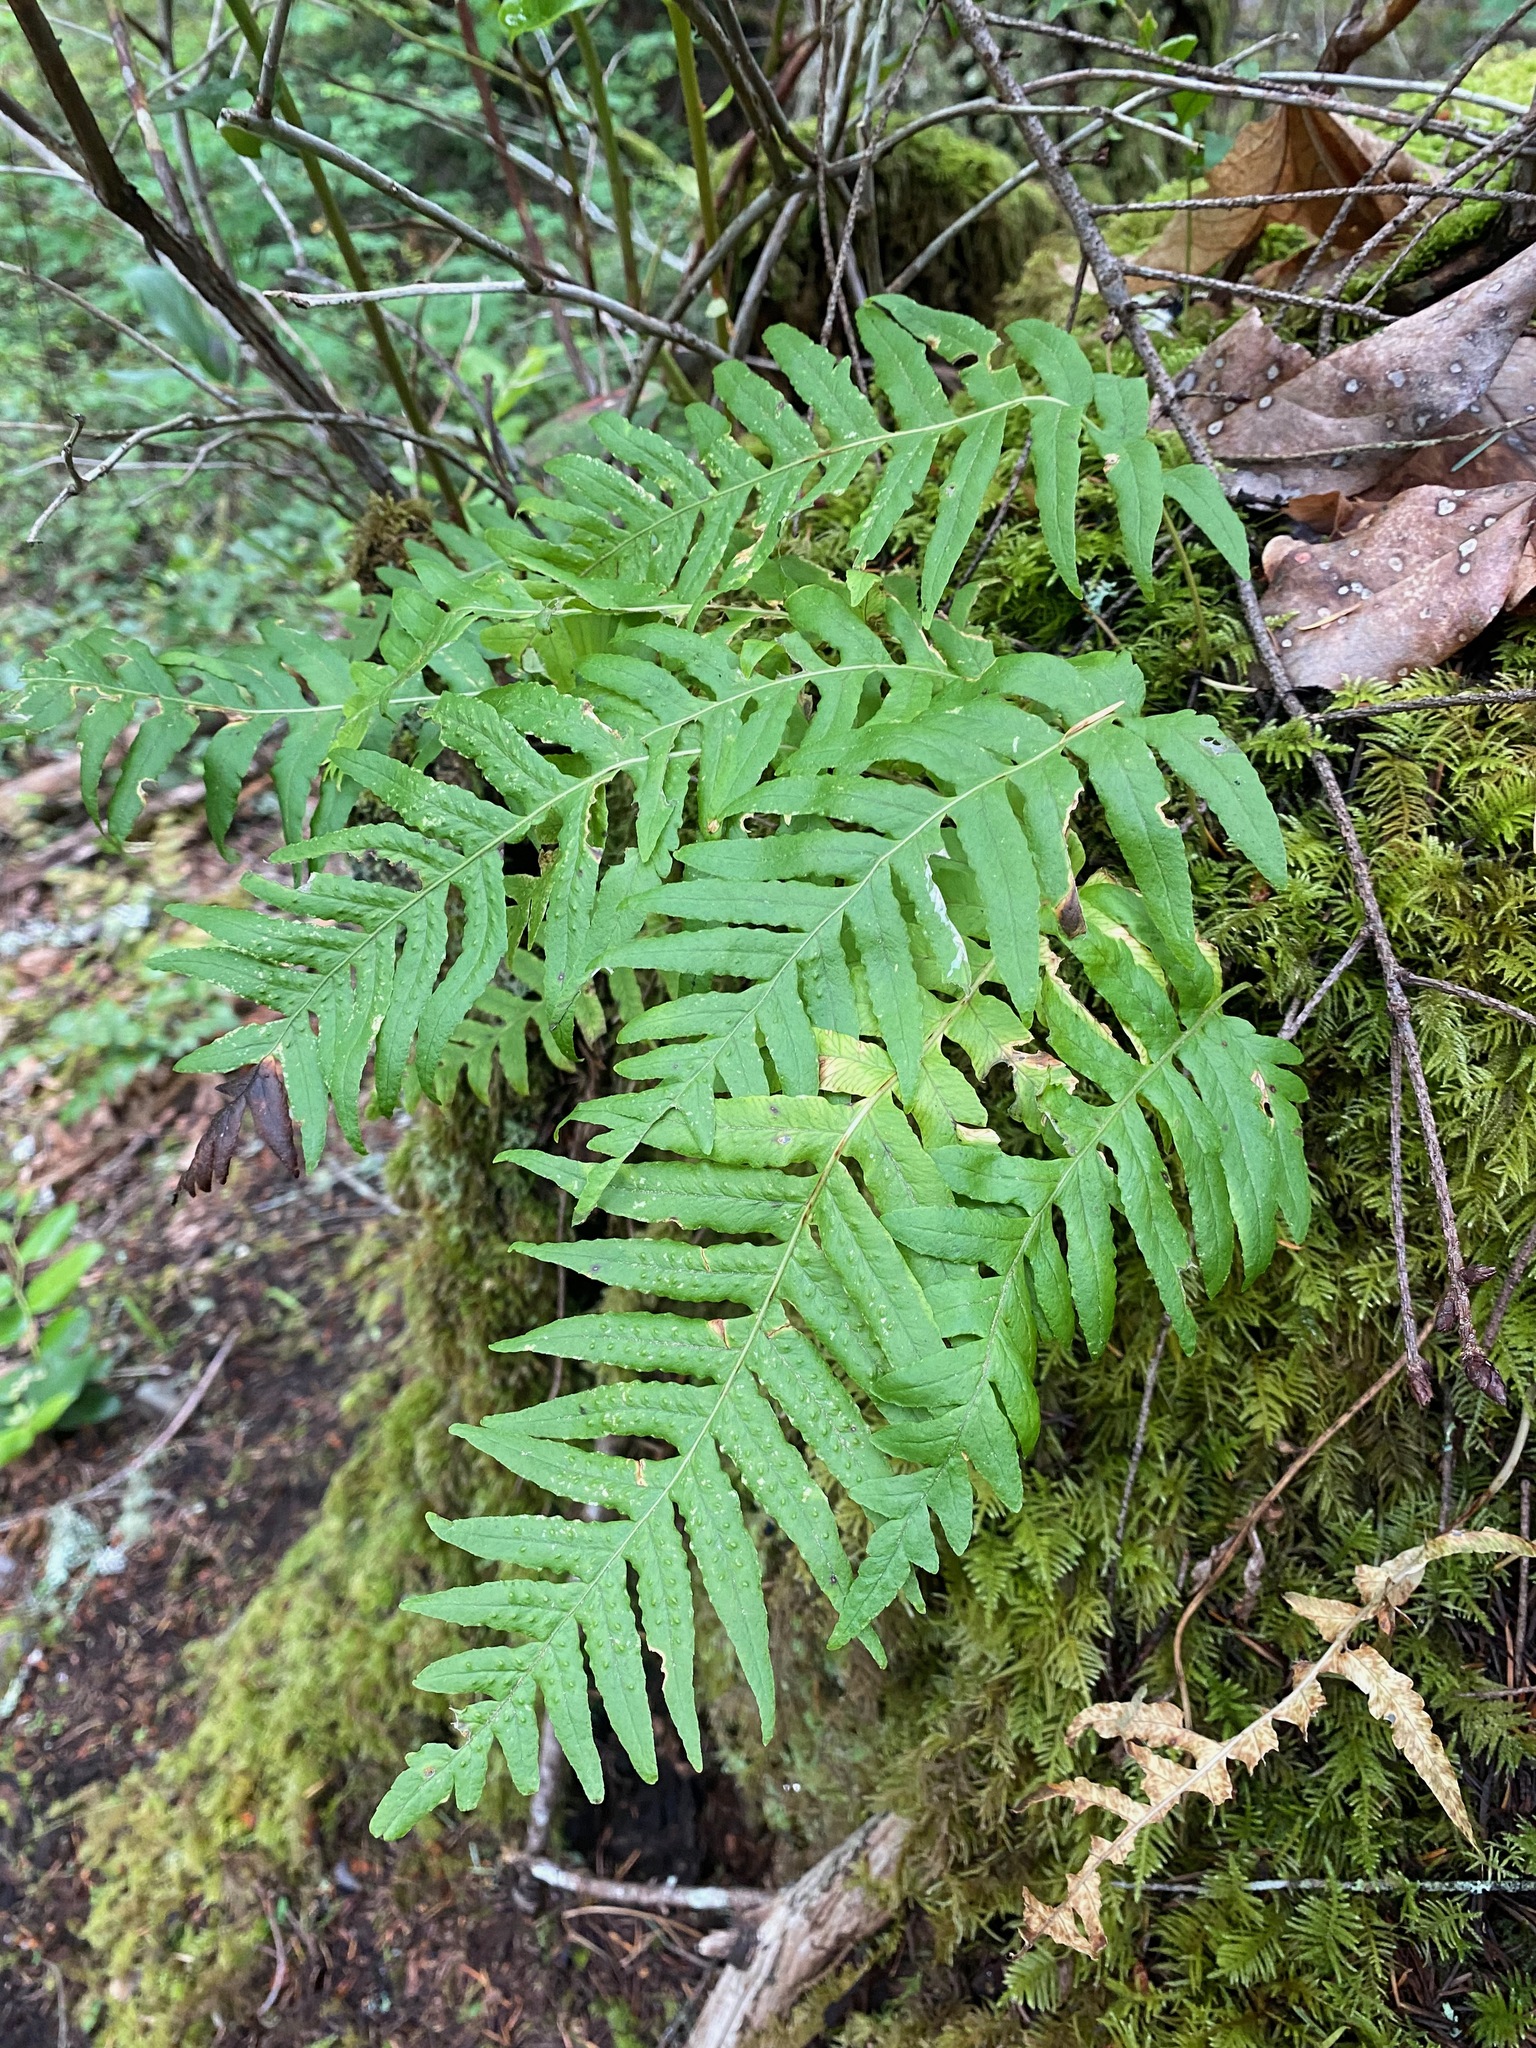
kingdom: Plantae
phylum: Tracheophyta
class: Polypodiopsida
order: Polypodiales
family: Polypodiaceae
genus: Polypodium
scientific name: Polypodium glycyrrhiza
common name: Licorice fern
